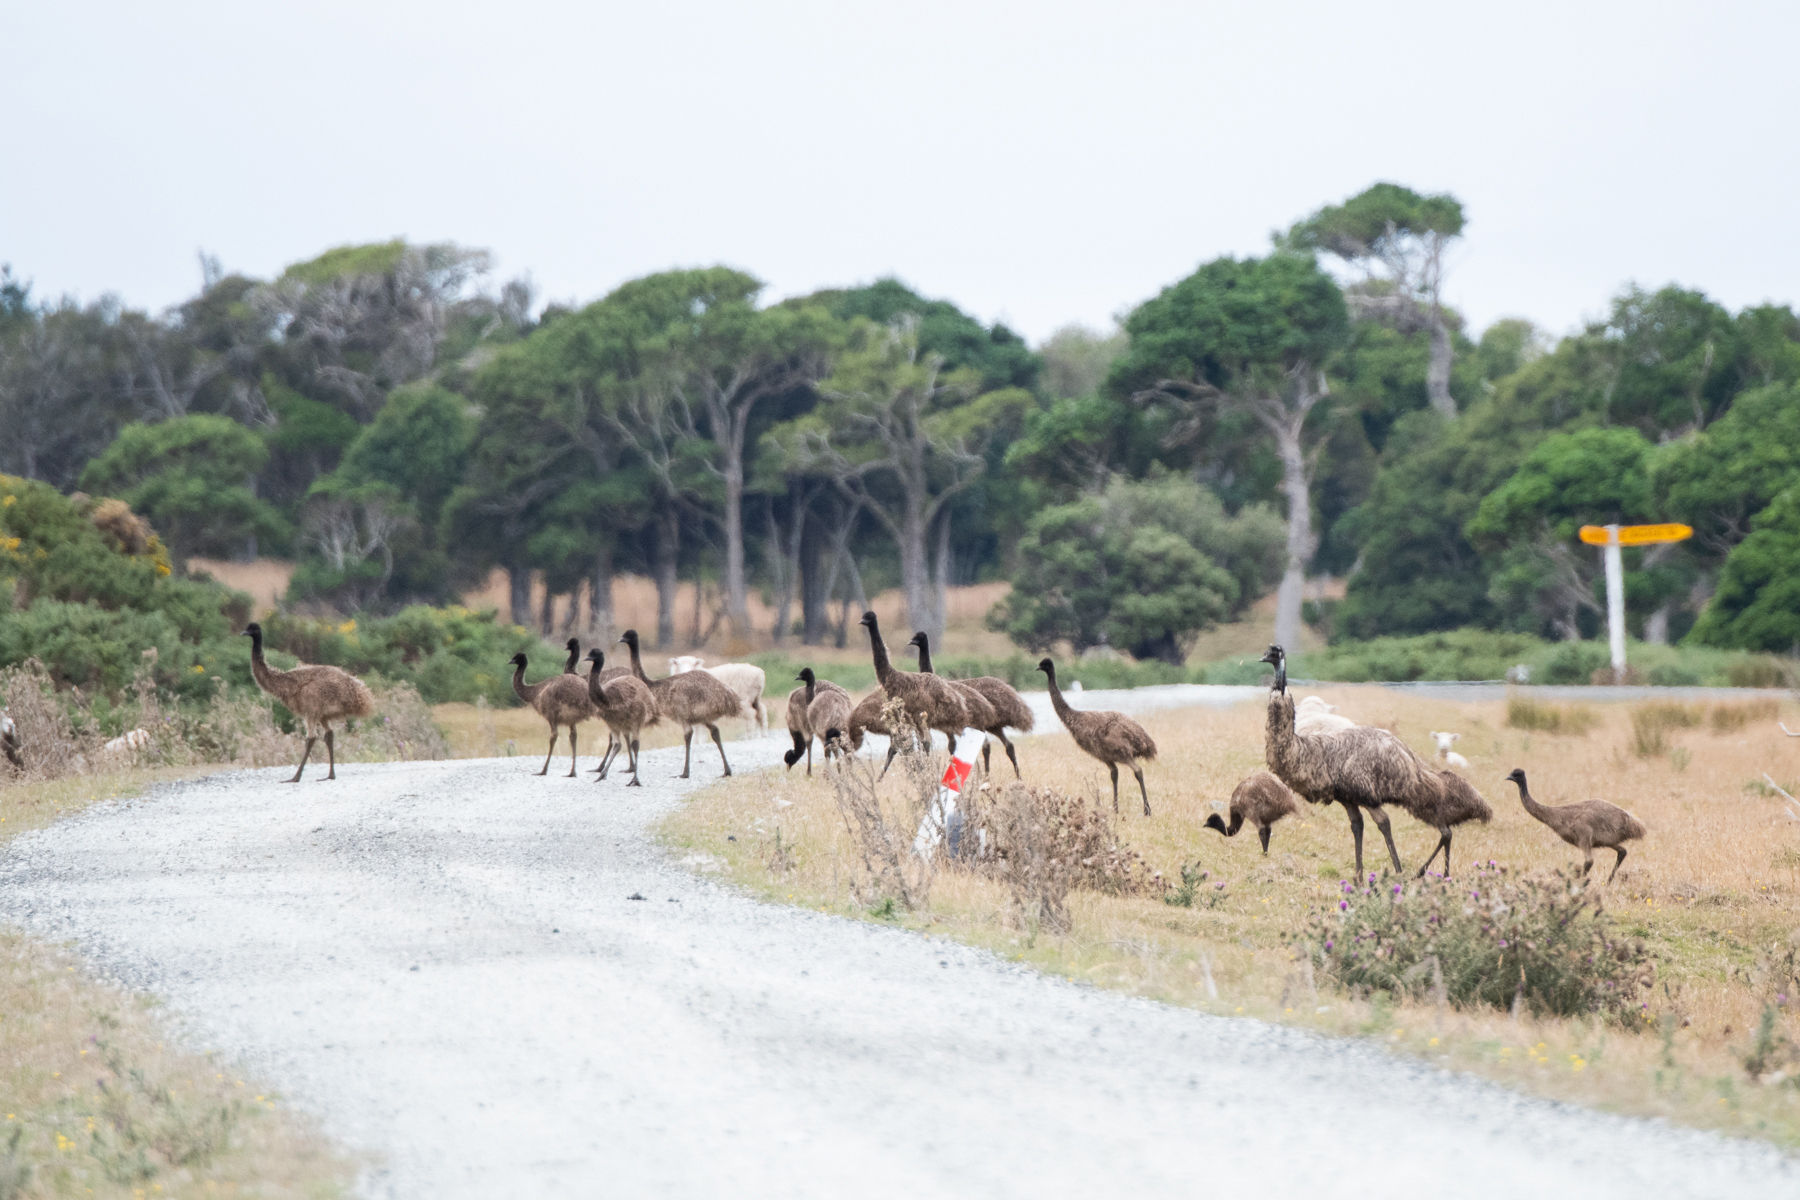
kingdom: Animalia
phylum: Chordata
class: Aves
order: Casuariiformes
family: Dromaiidae
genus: Dromaius
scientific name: Dromaius novaehollandiae
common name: Emu
